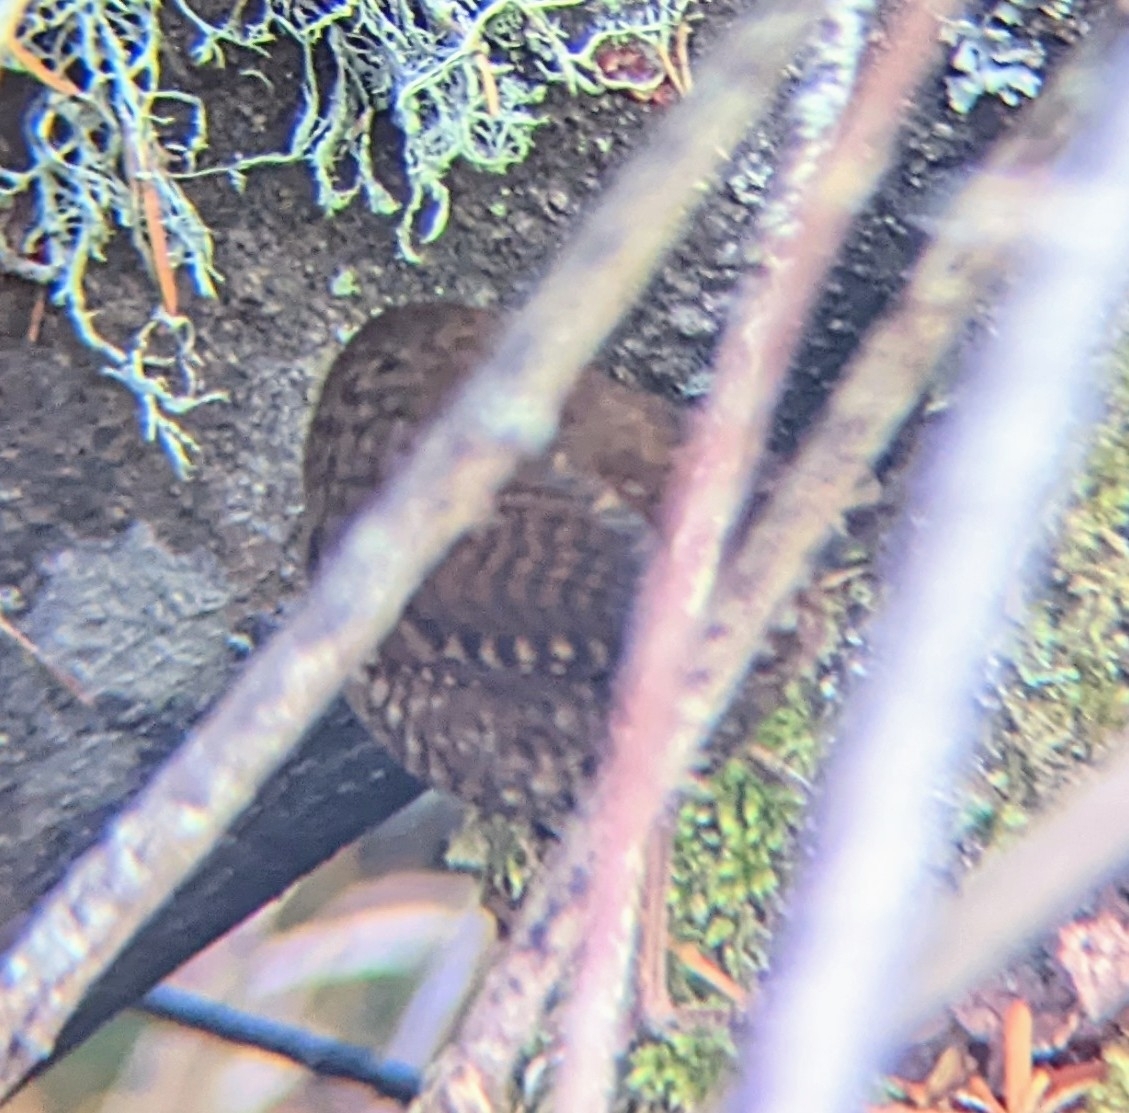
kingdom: Animalia
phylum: Chordata
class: Aves
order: Passeriformes
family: Troglodytidae
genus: Troglodytes
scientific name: Troglodytes pacificus
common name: Pacific wren
